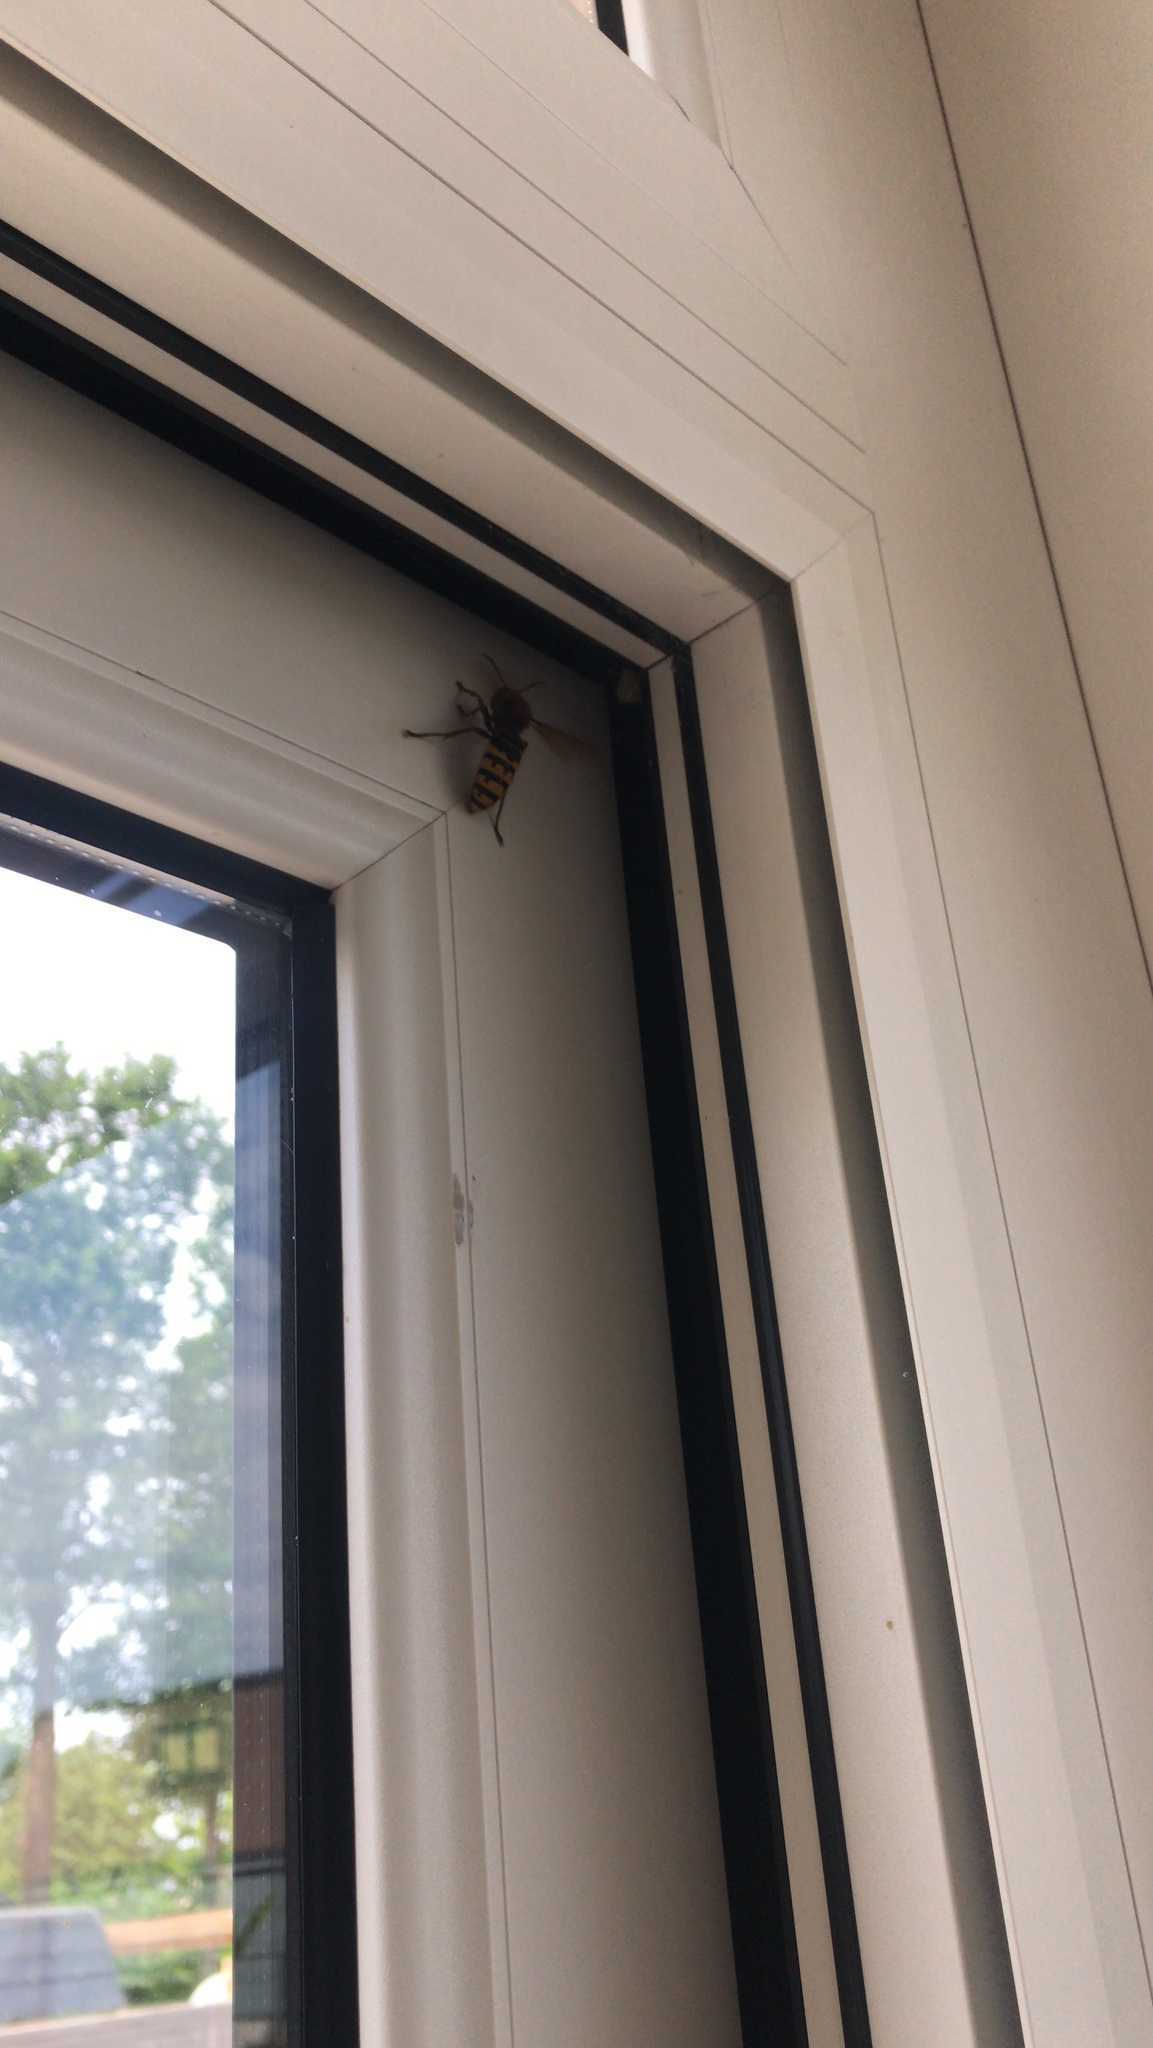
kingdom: Animalia
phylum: Arthropoda
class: Insecta
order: Hymenoptera
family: Vespidae
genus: Vespa
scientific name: Vespa crabro
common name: Hornet
